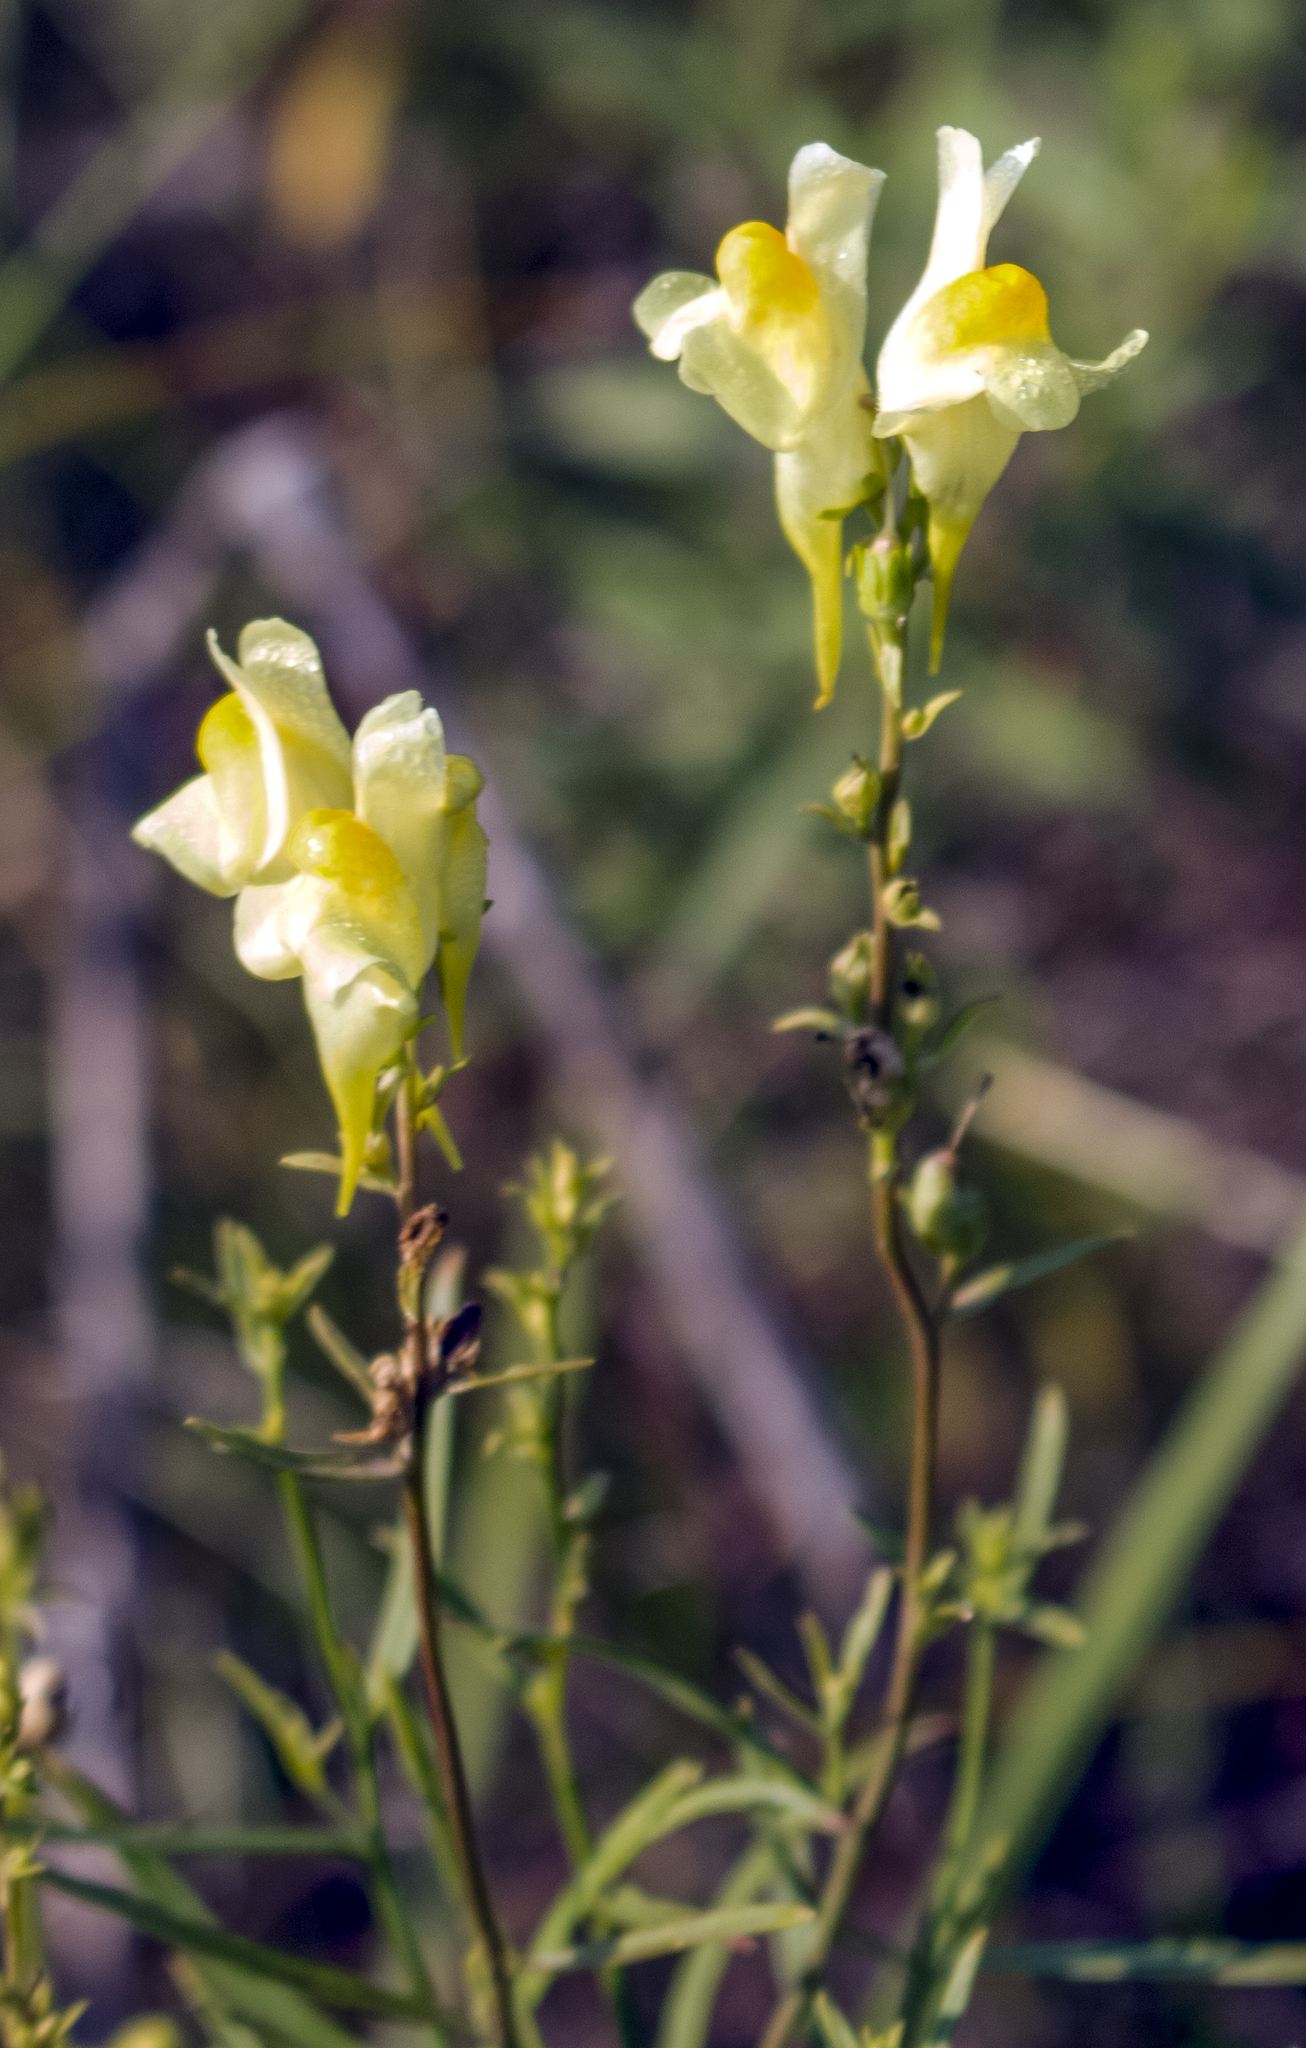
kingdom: Plantae
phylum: Tracheophyta
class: Magnoliopsida
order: Lamiales
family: Plantaginaceae
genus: Linaria
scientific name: Linaria vulgaris
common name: Butter and eggs
